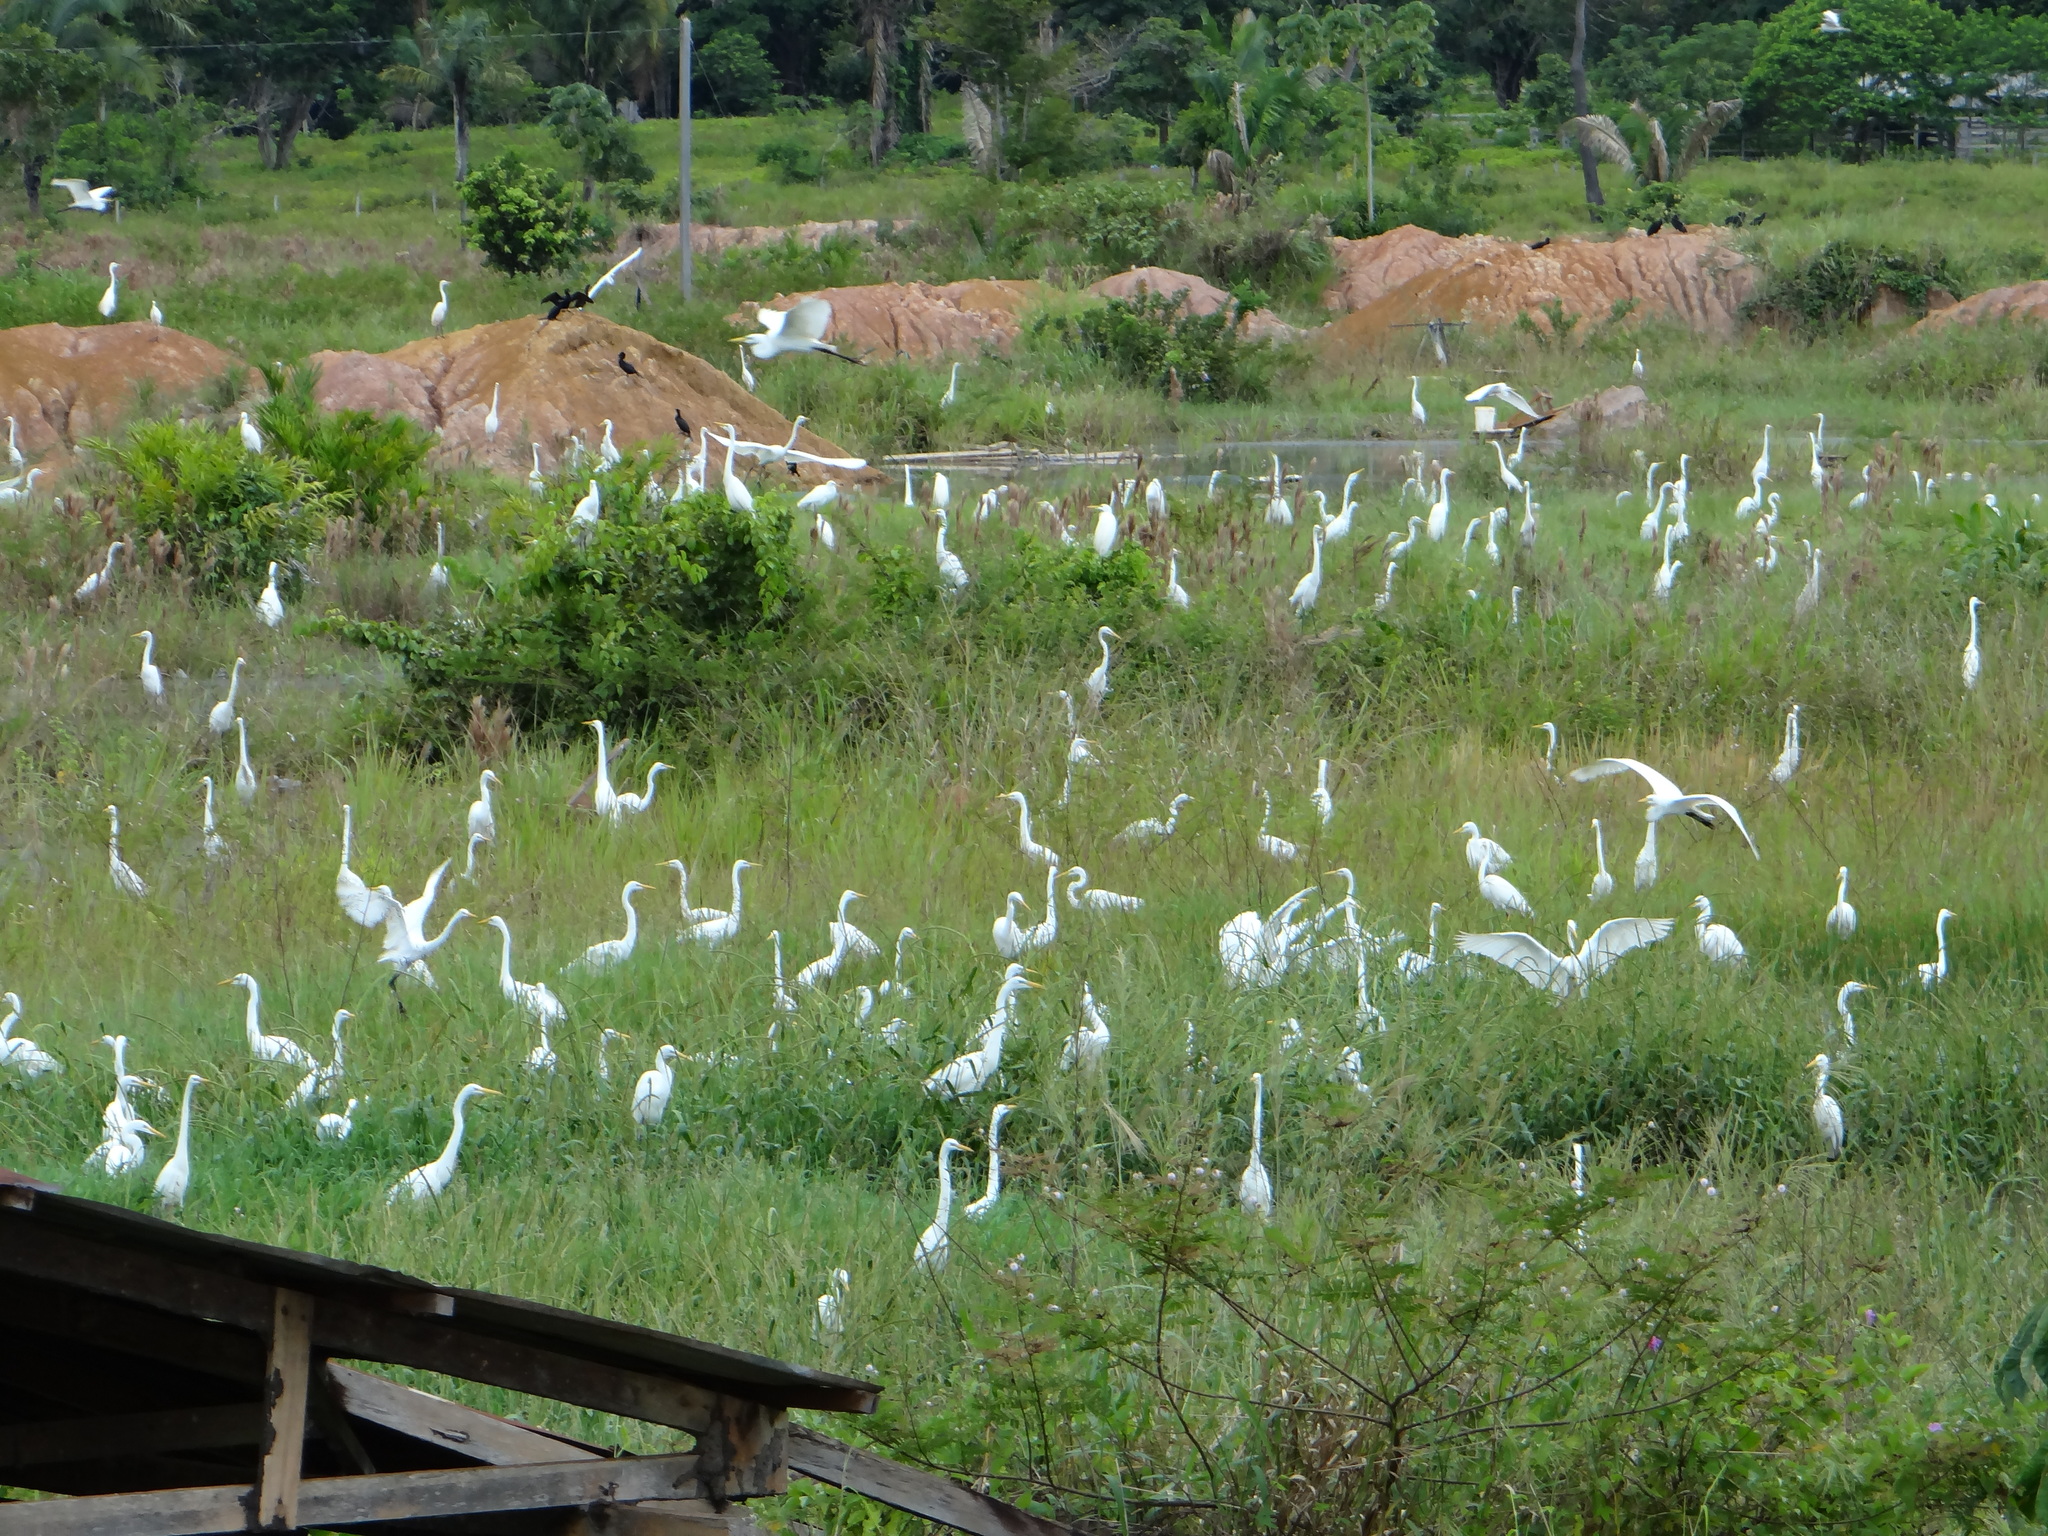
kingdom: Animalia
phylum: Chordata
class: Aves
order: Pelecaniformes
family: Ardeidae
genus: Ardea
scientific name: Ardea alba
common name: Great egret
